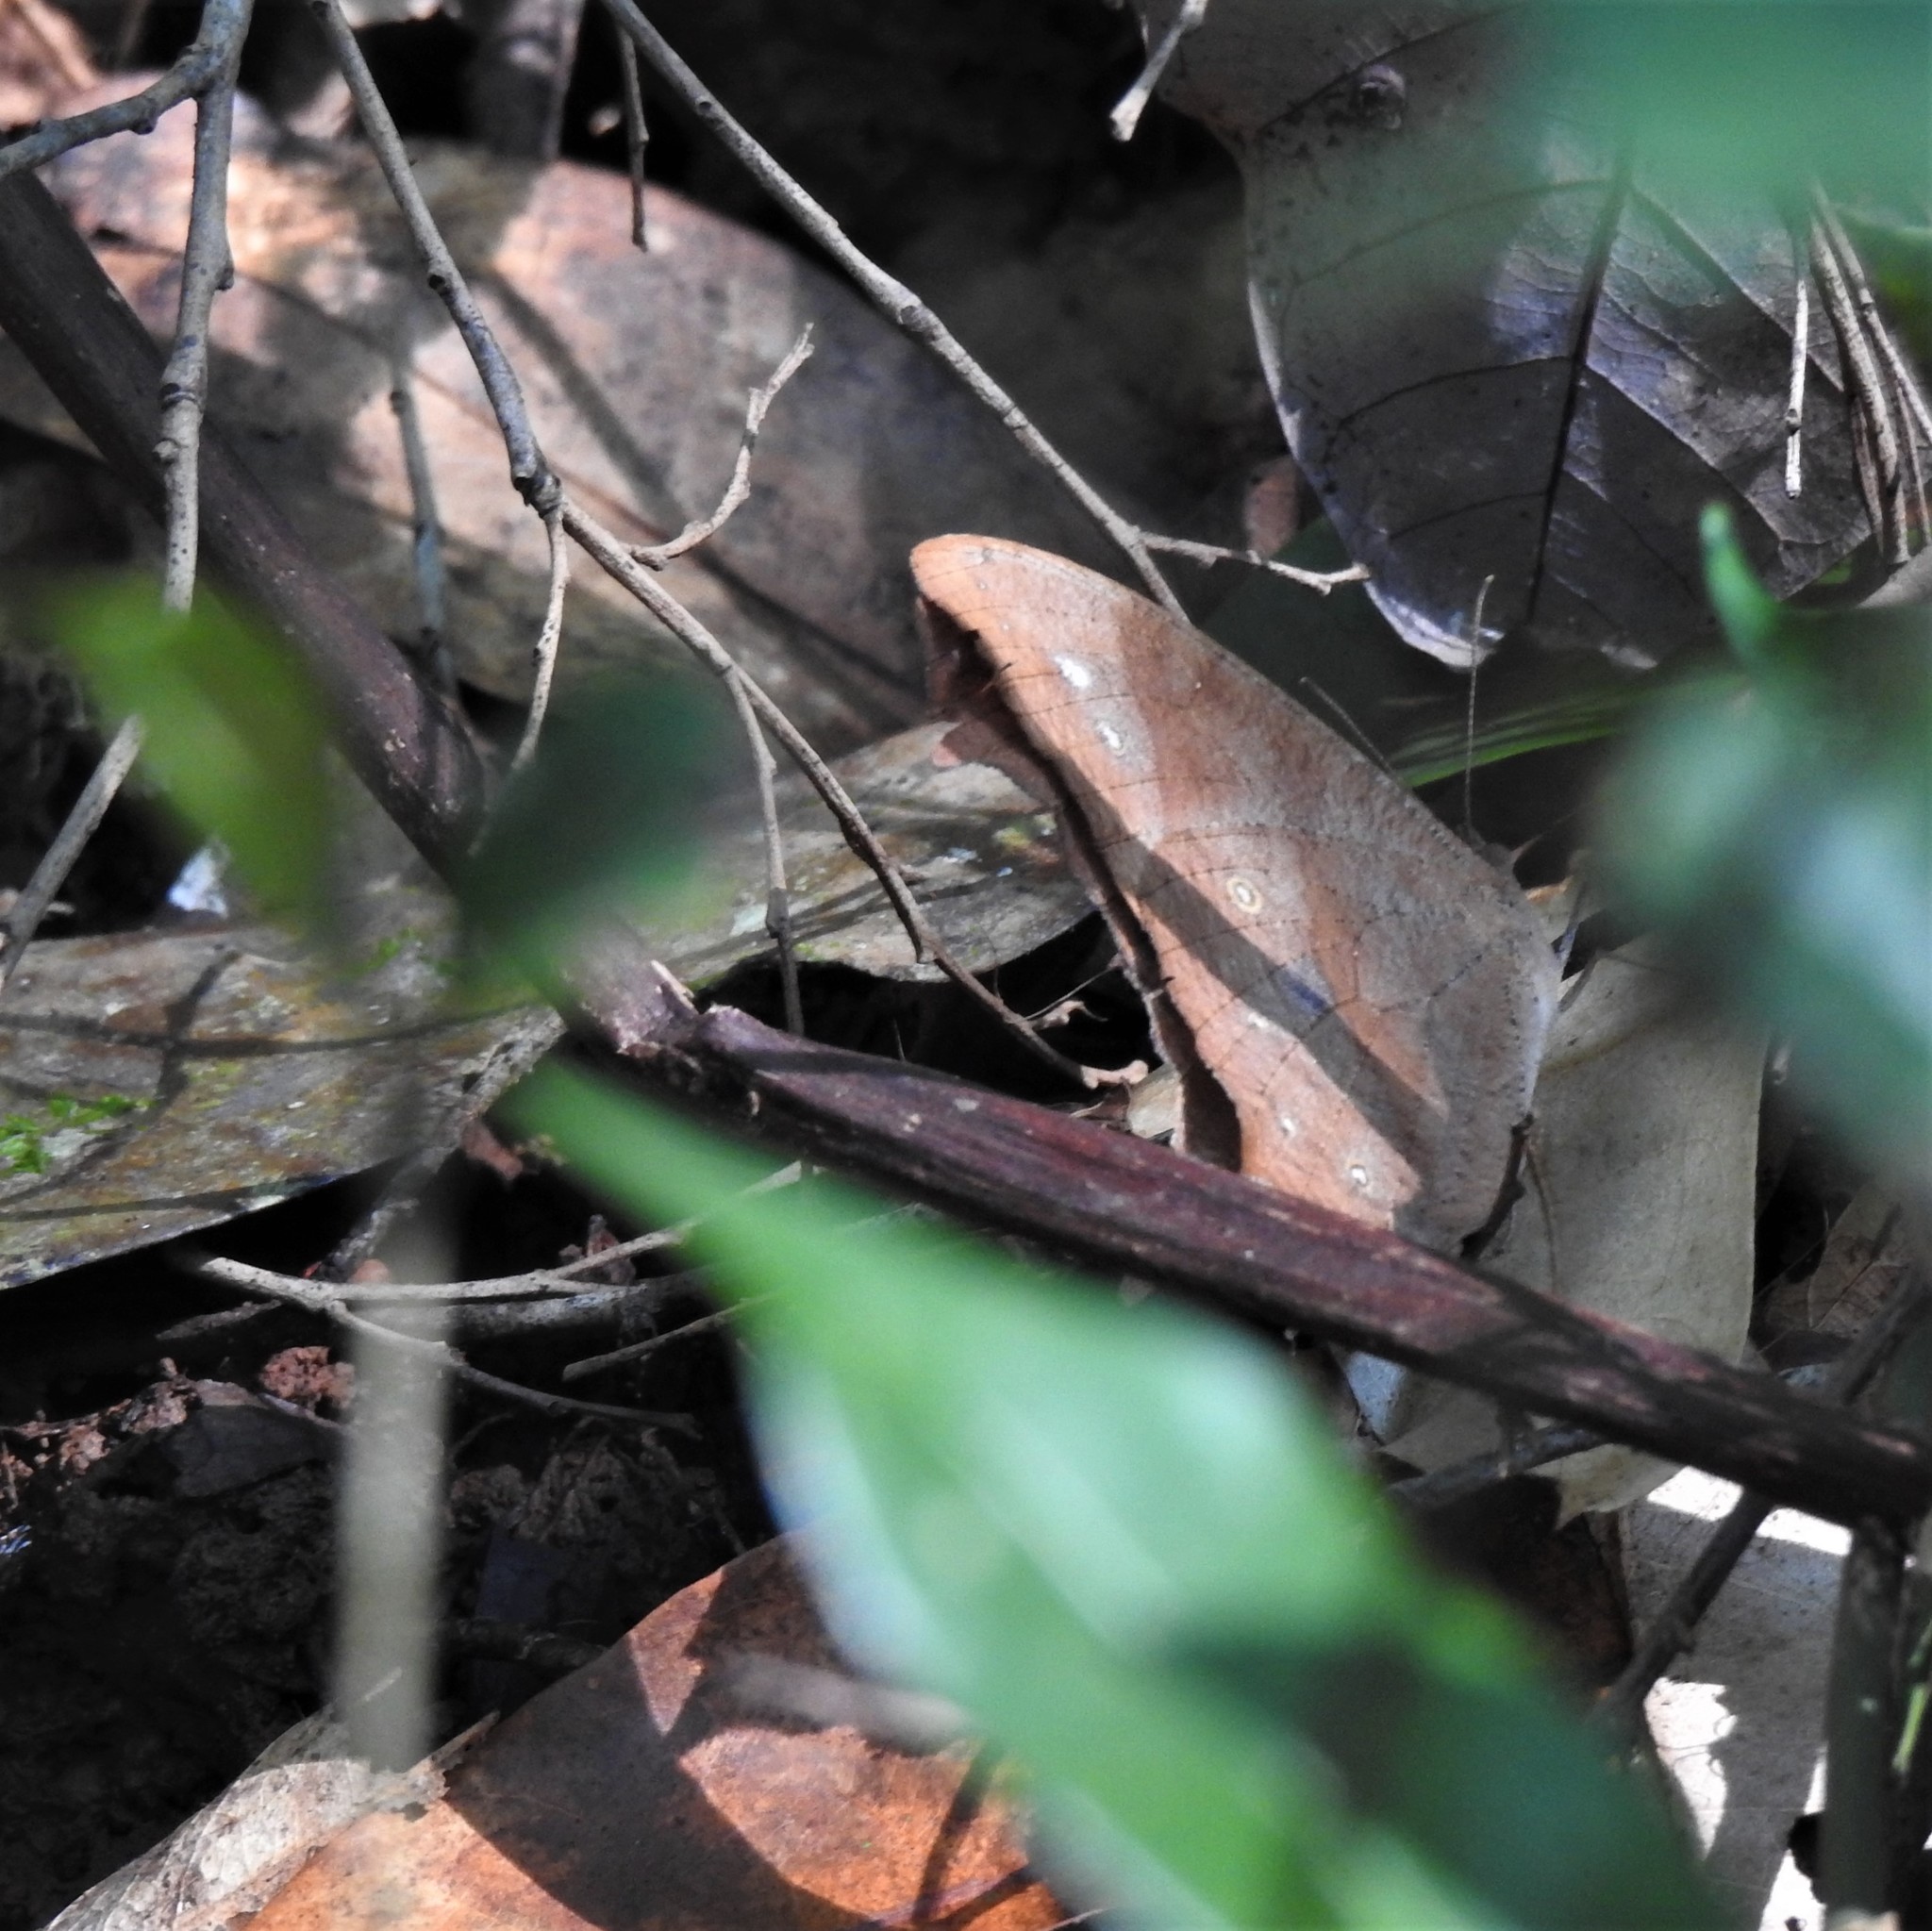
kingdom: Animalia
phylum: Arthropoda
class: Insecta
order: Lepidoptera
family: Nymphalidae
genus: Melanitis
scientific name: Melanitis leda
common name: Twilight brown
